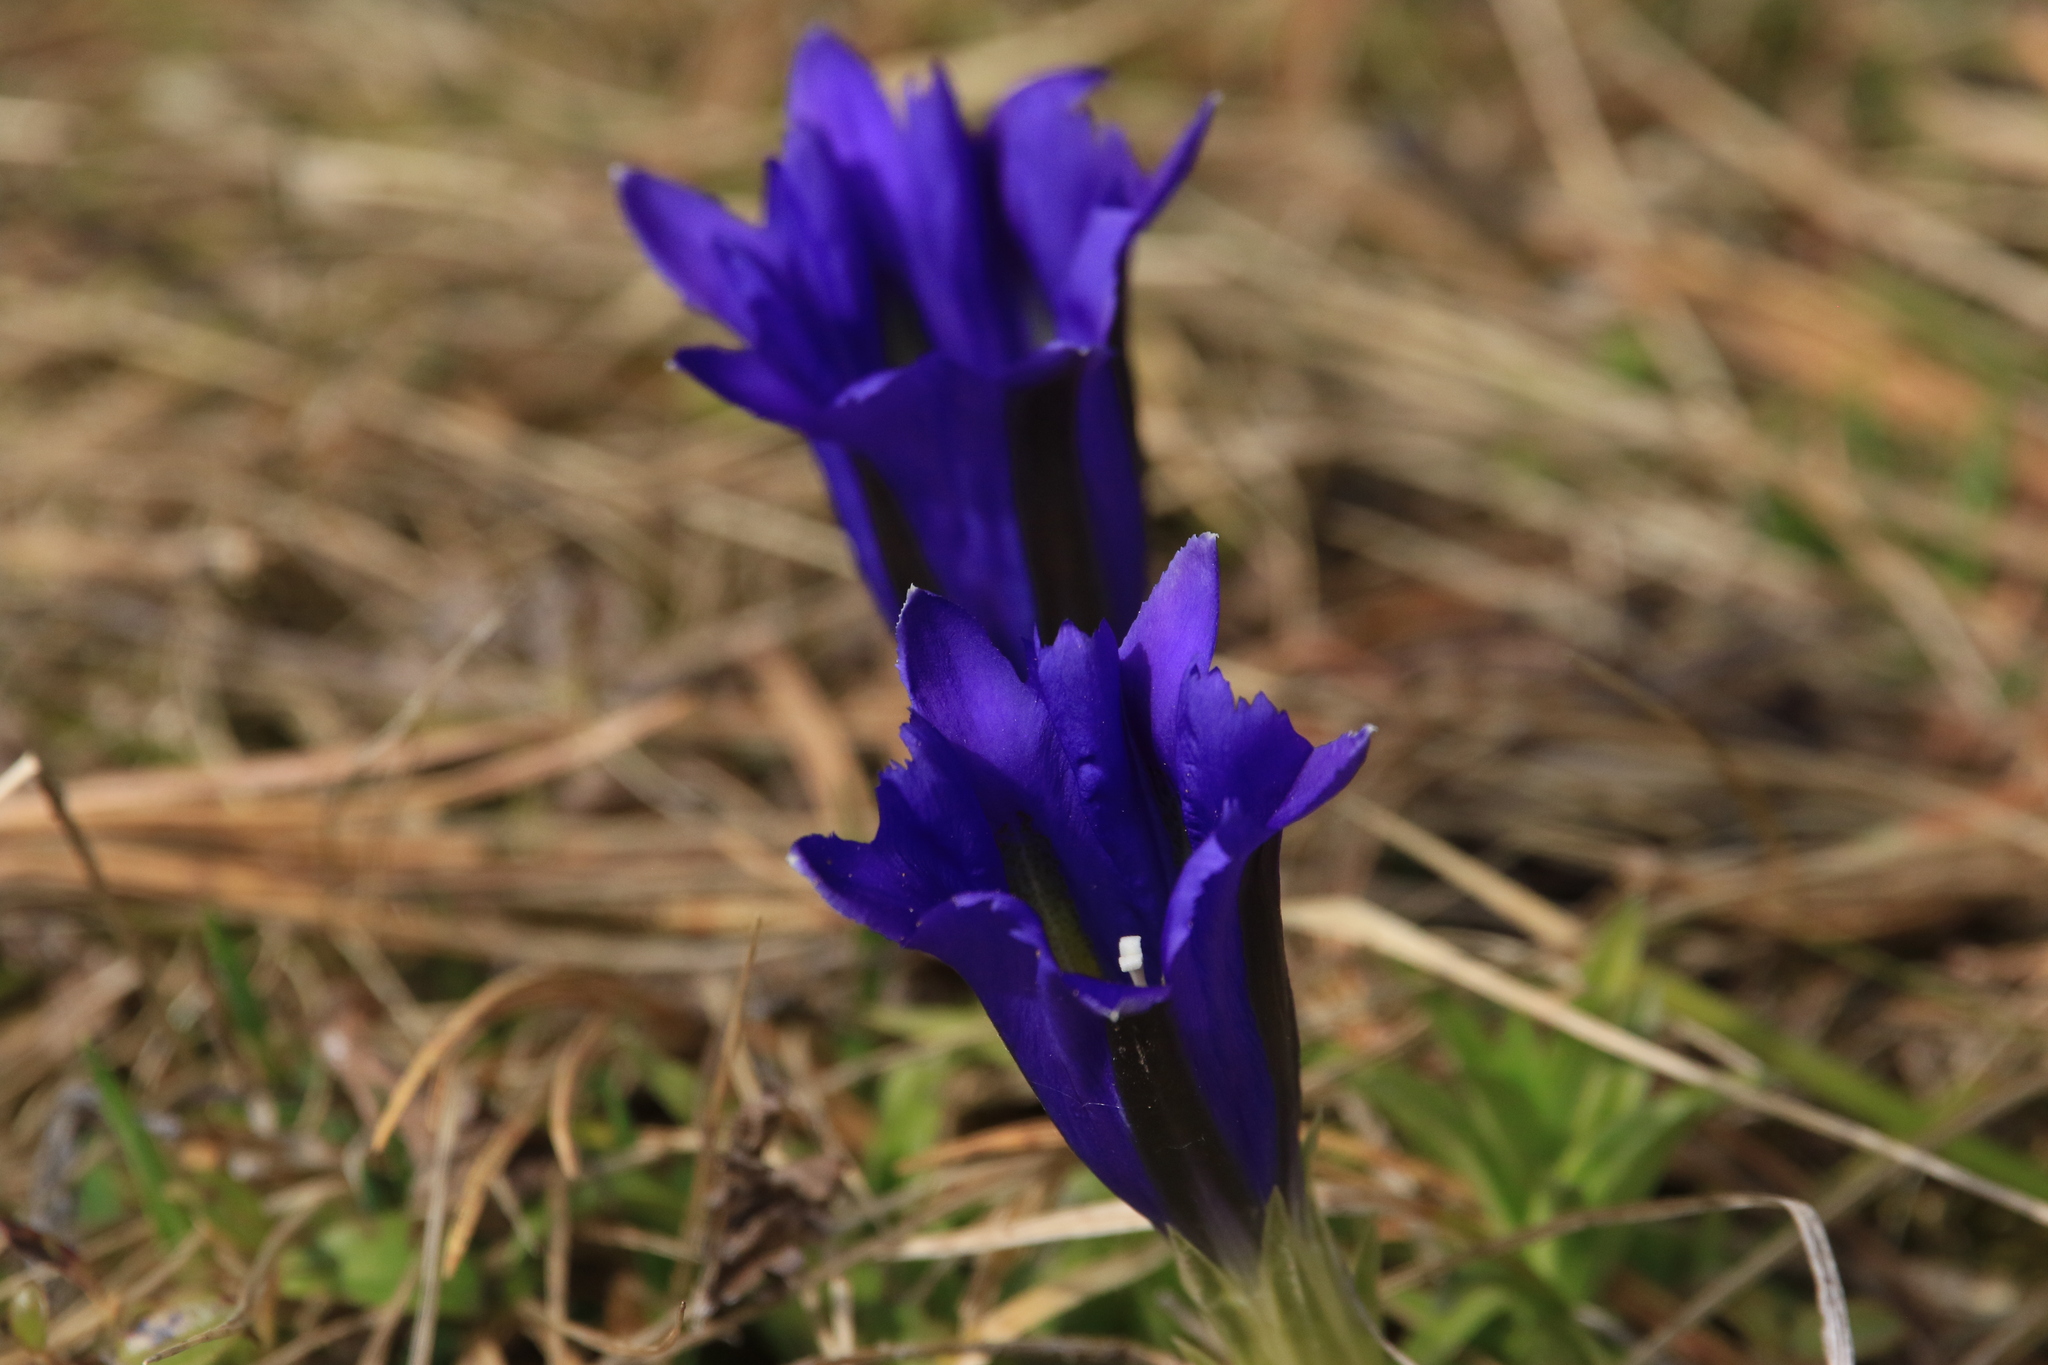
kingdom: Plantae
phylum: Tracheophyta
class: Magnoliopsida
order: Gentianales
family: Gentianaceae
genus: Gentiana
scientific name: Gentiana grandiflora
